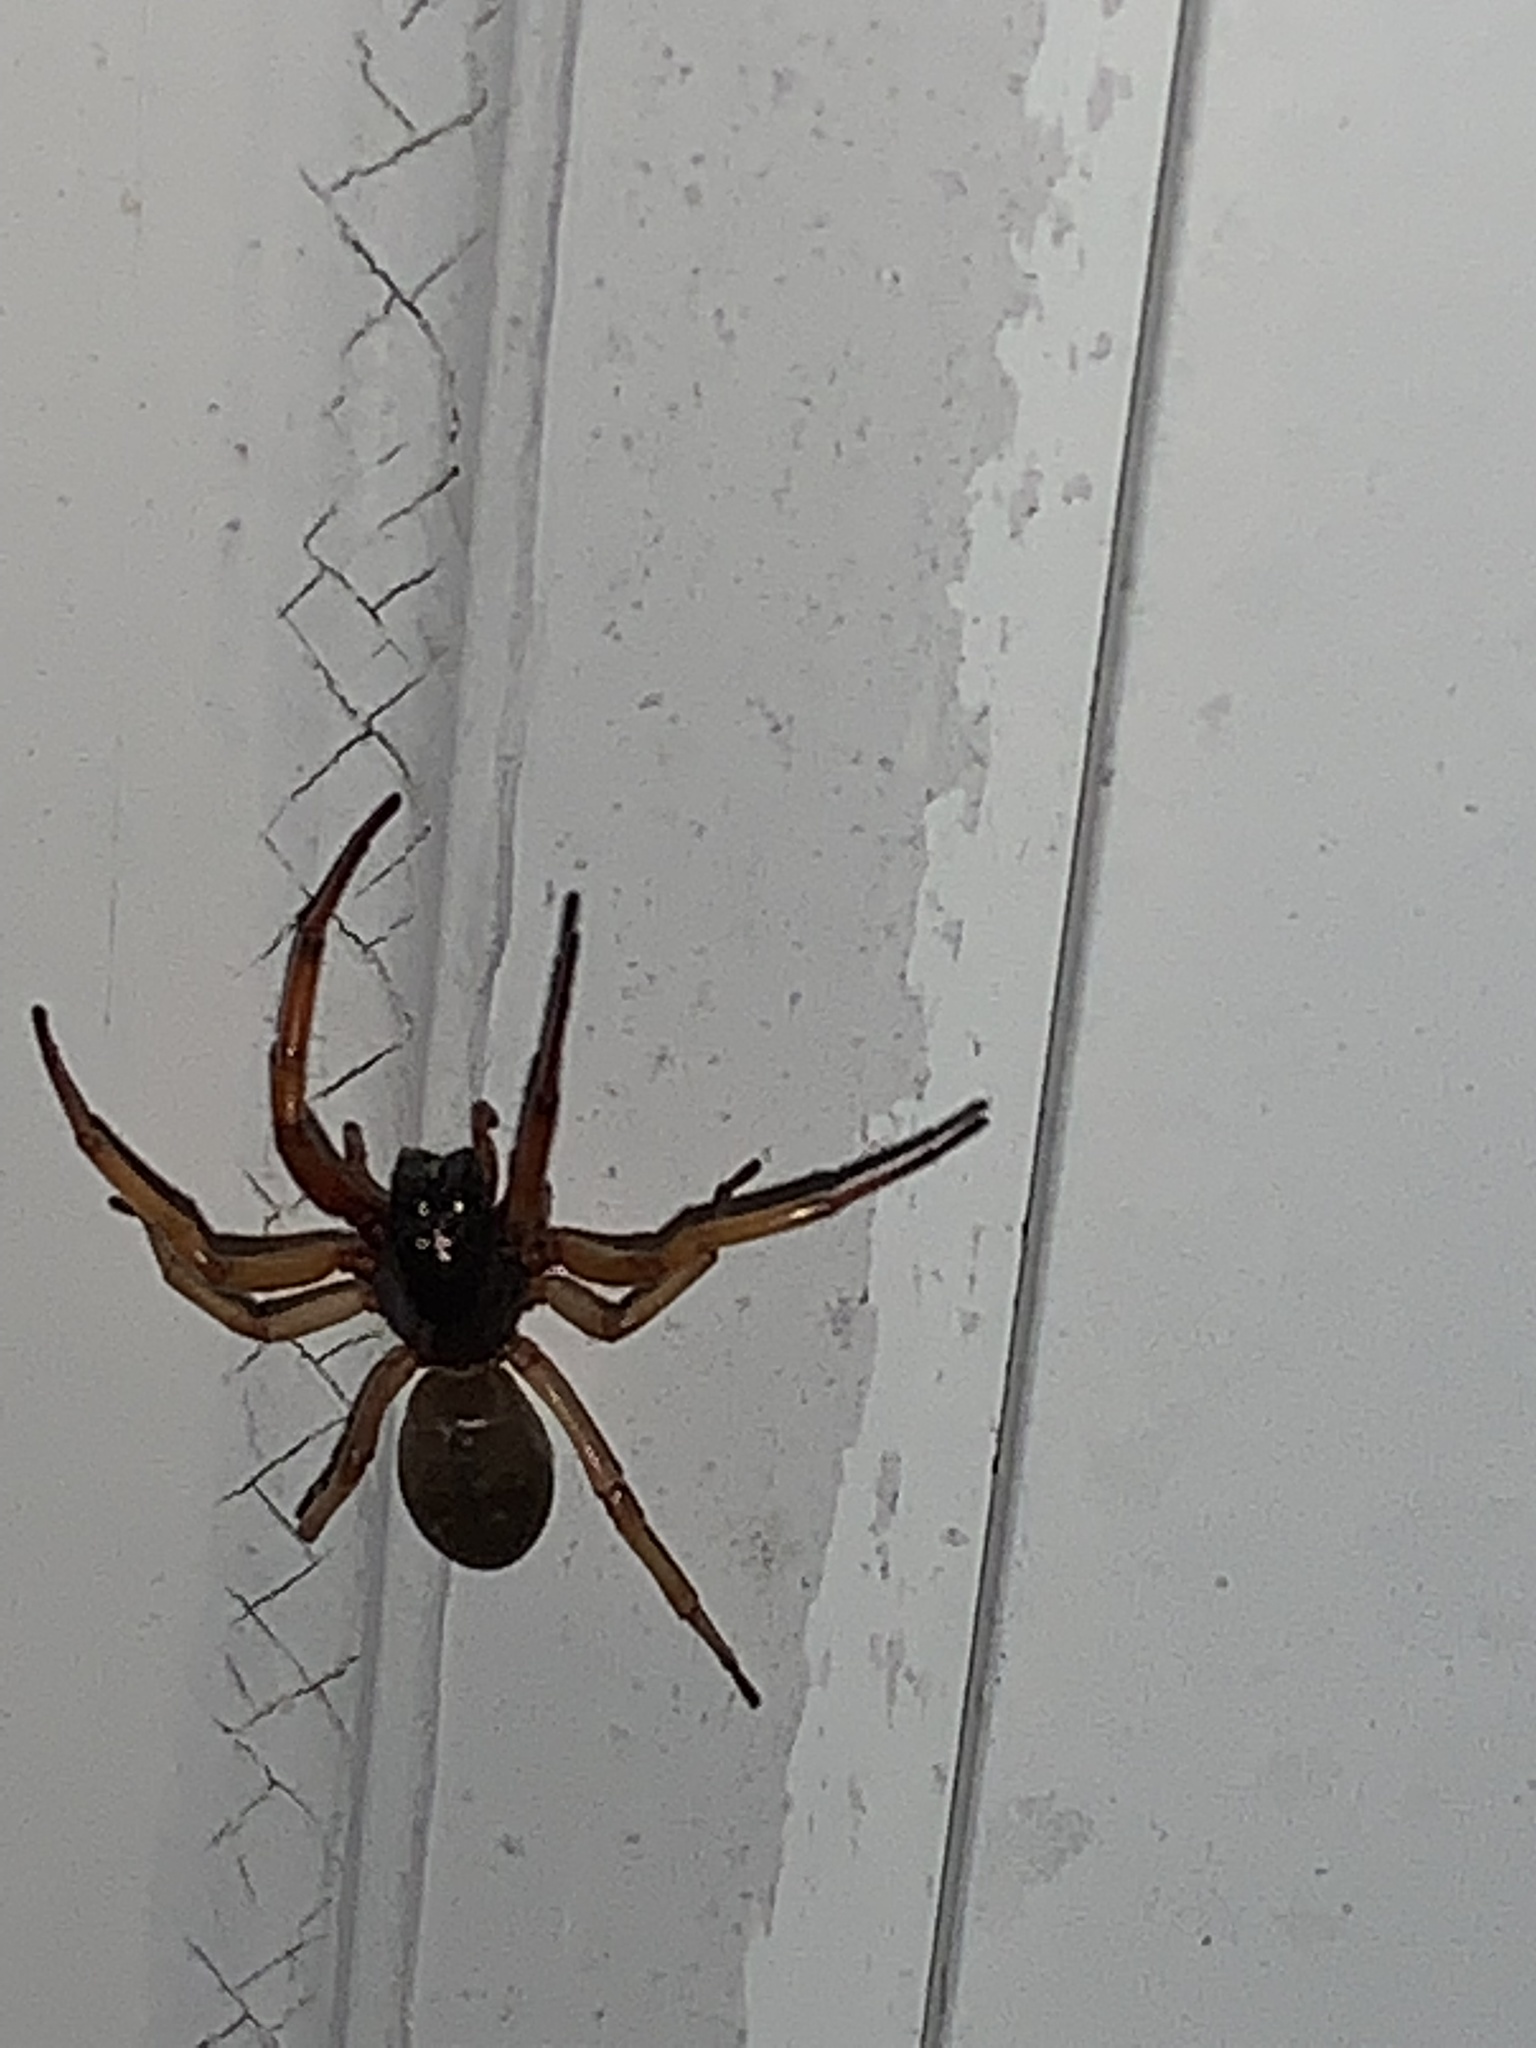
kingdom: Animalia
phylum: Arthropoda
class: Arachnida
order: Araneae
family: Trachelidae
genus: Trachelas
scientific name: Trachelas tranquillus
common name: Broad-faced sac spider
